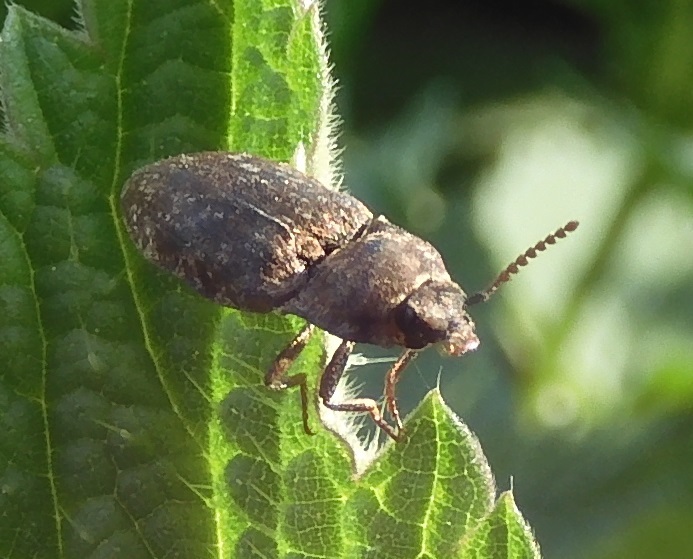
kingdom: Animalia
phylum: Arthropoda
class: Insecta
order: Coleoptera
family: Elateridae
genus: Agrypnus
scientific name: Agrypnus murinus
